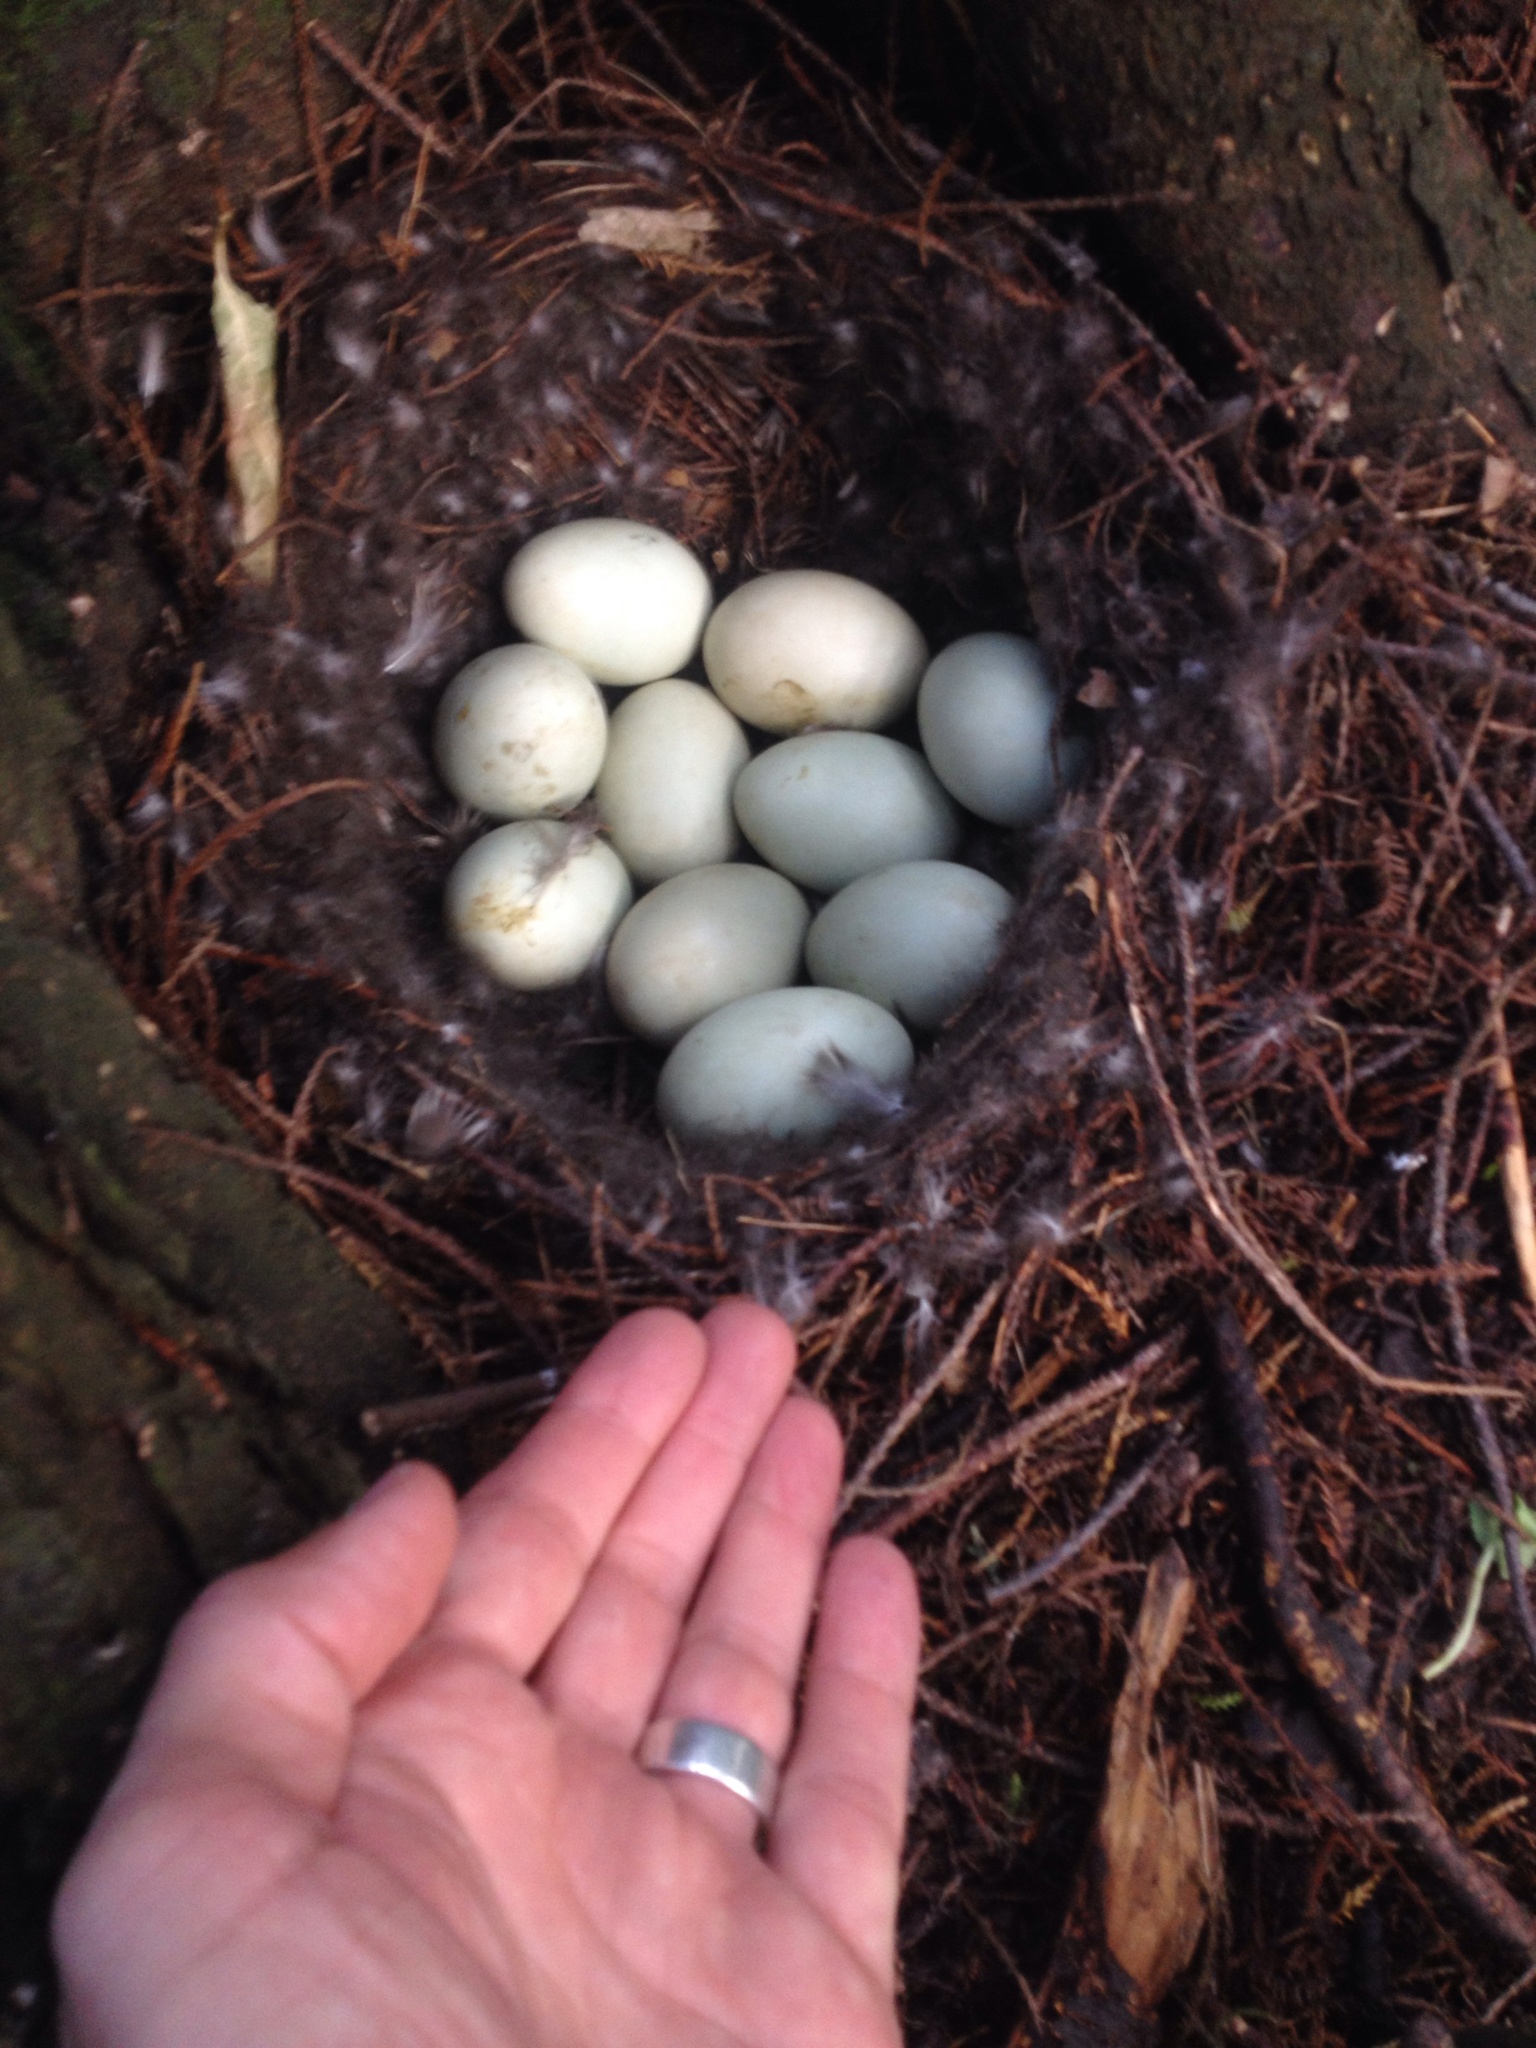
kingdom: Animalia
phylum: Chordata
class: Aves
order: Anseriformes
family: Anatidae
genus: Anas
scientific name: Anas platyrhynchos
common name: Mallard
